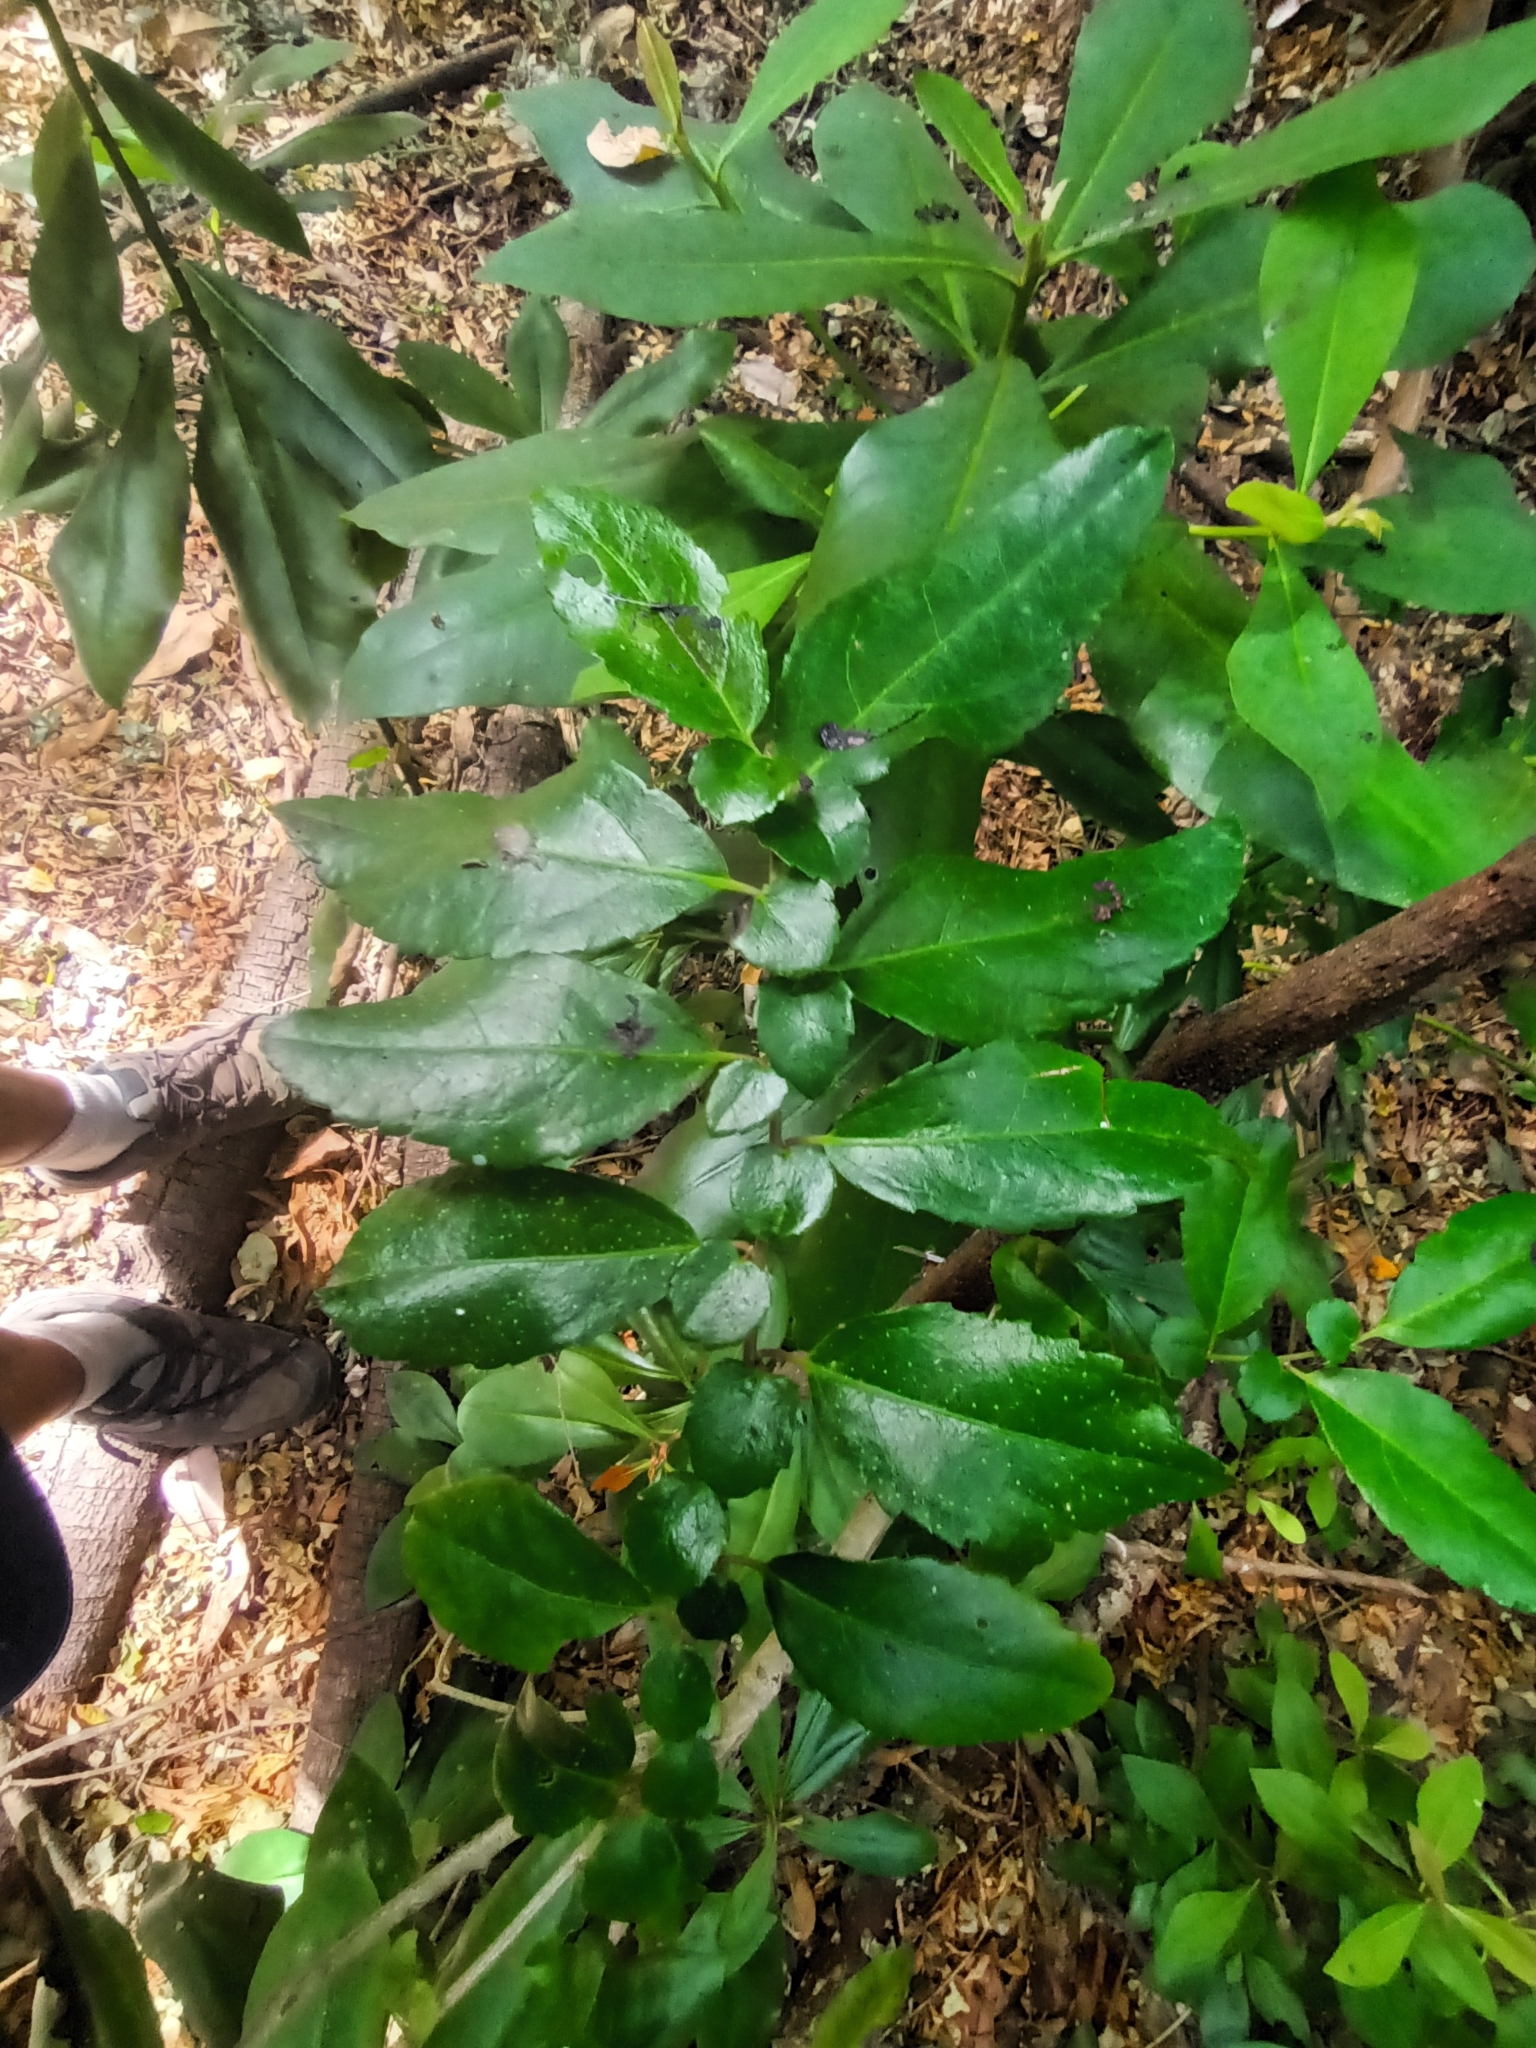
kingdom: Plantae
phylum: Tracheophyta
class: Magnoliopsida
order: Malpighiales
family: Salicaceae
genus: Azara
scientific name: Azara serrata
